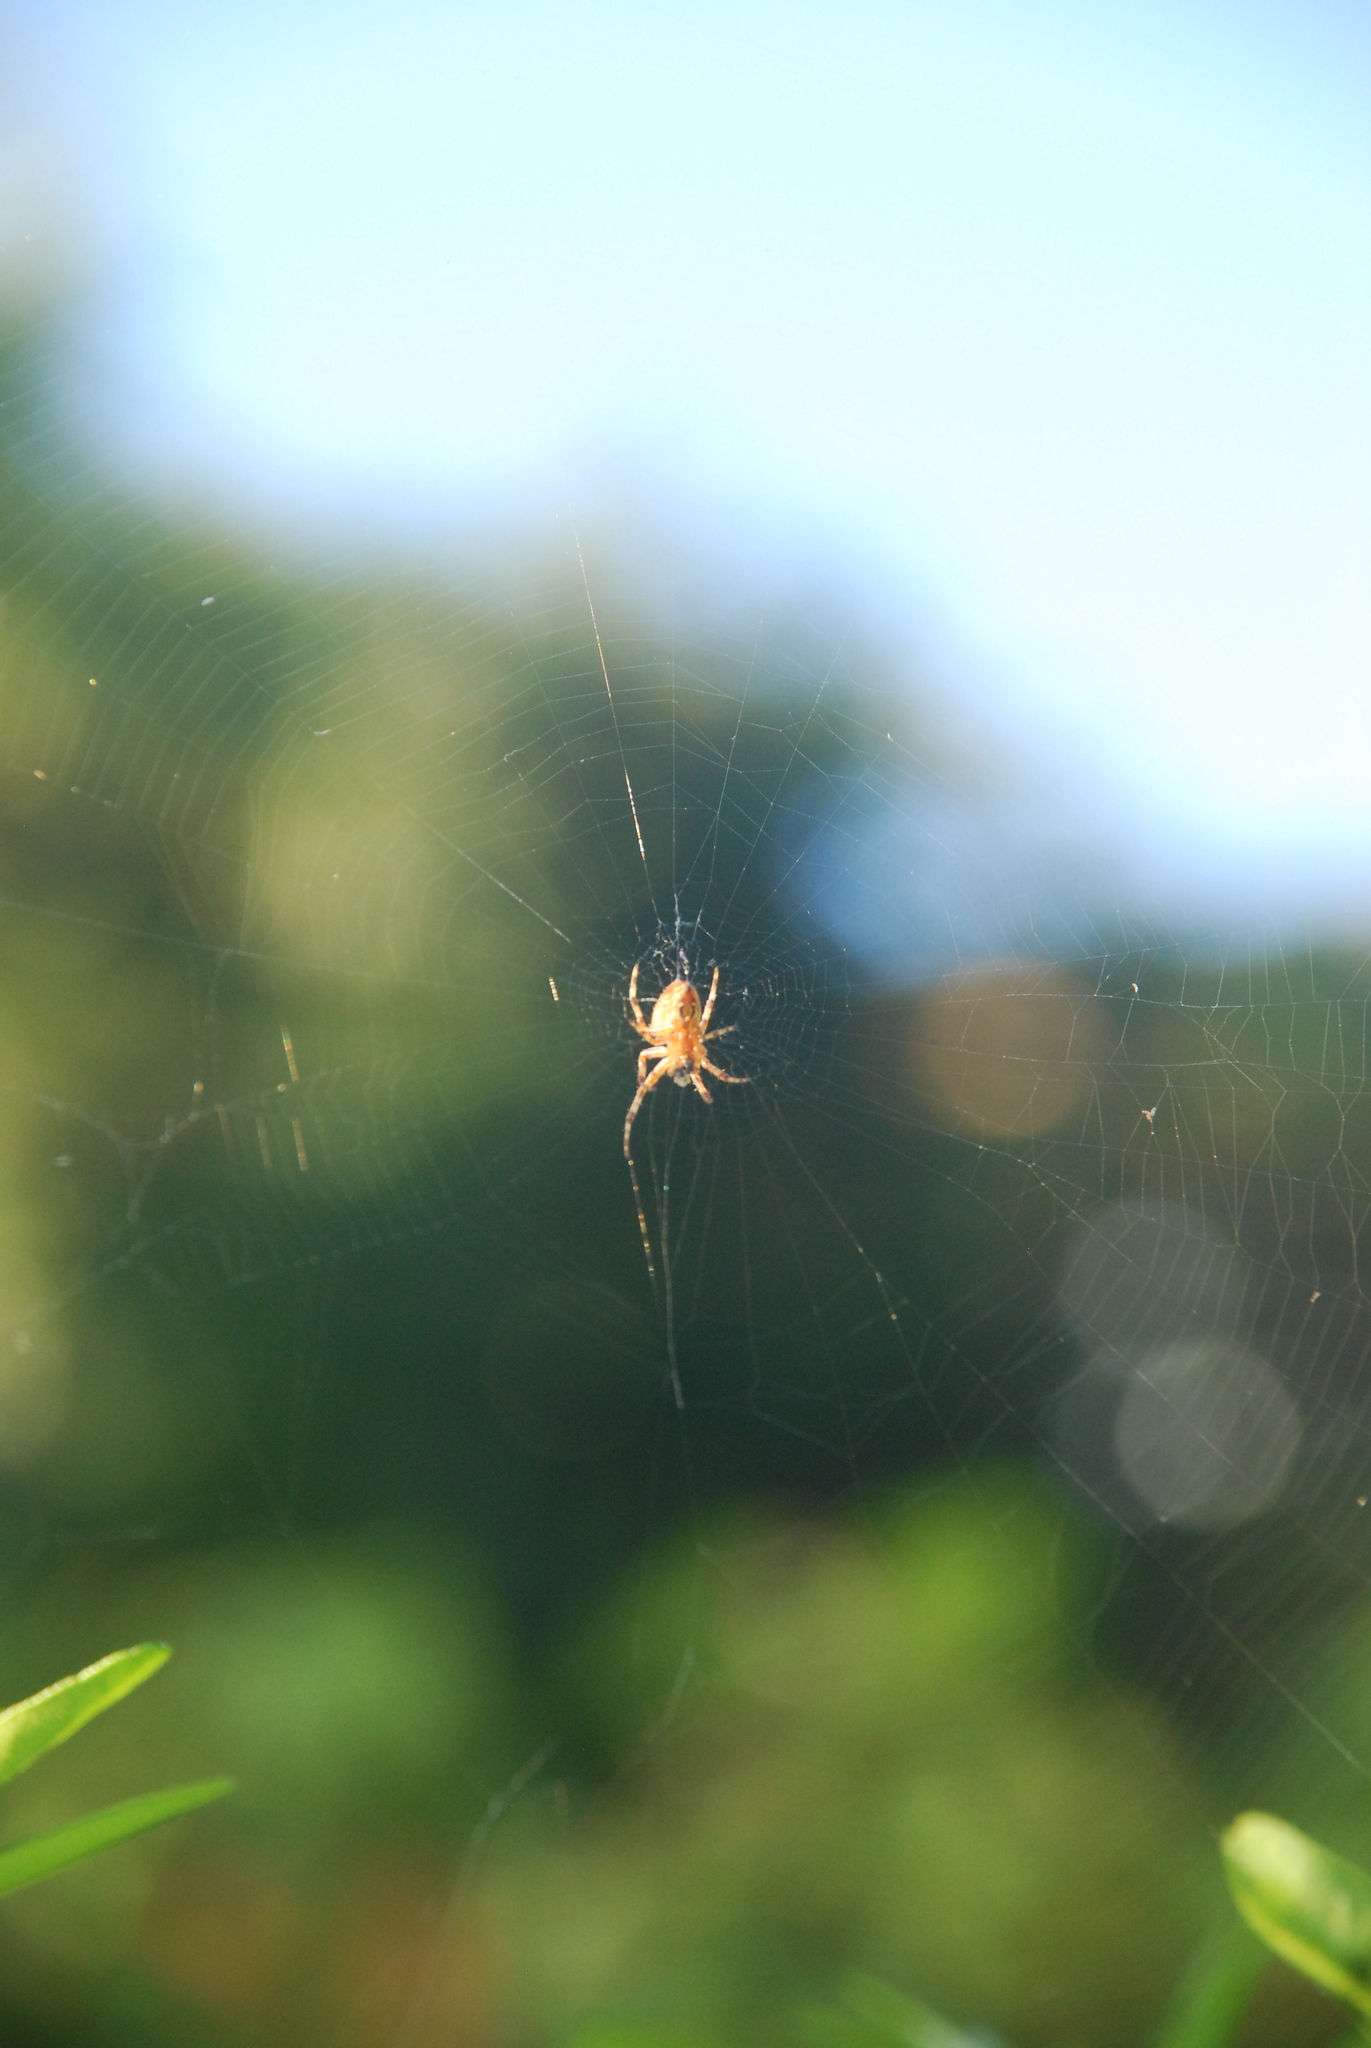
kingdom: Animalia
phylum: Arthropoda
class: Arachnida
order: Araneae
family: Araneidae
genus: Araneus
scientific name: Araneus diadematus
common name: Cross orbweaver
